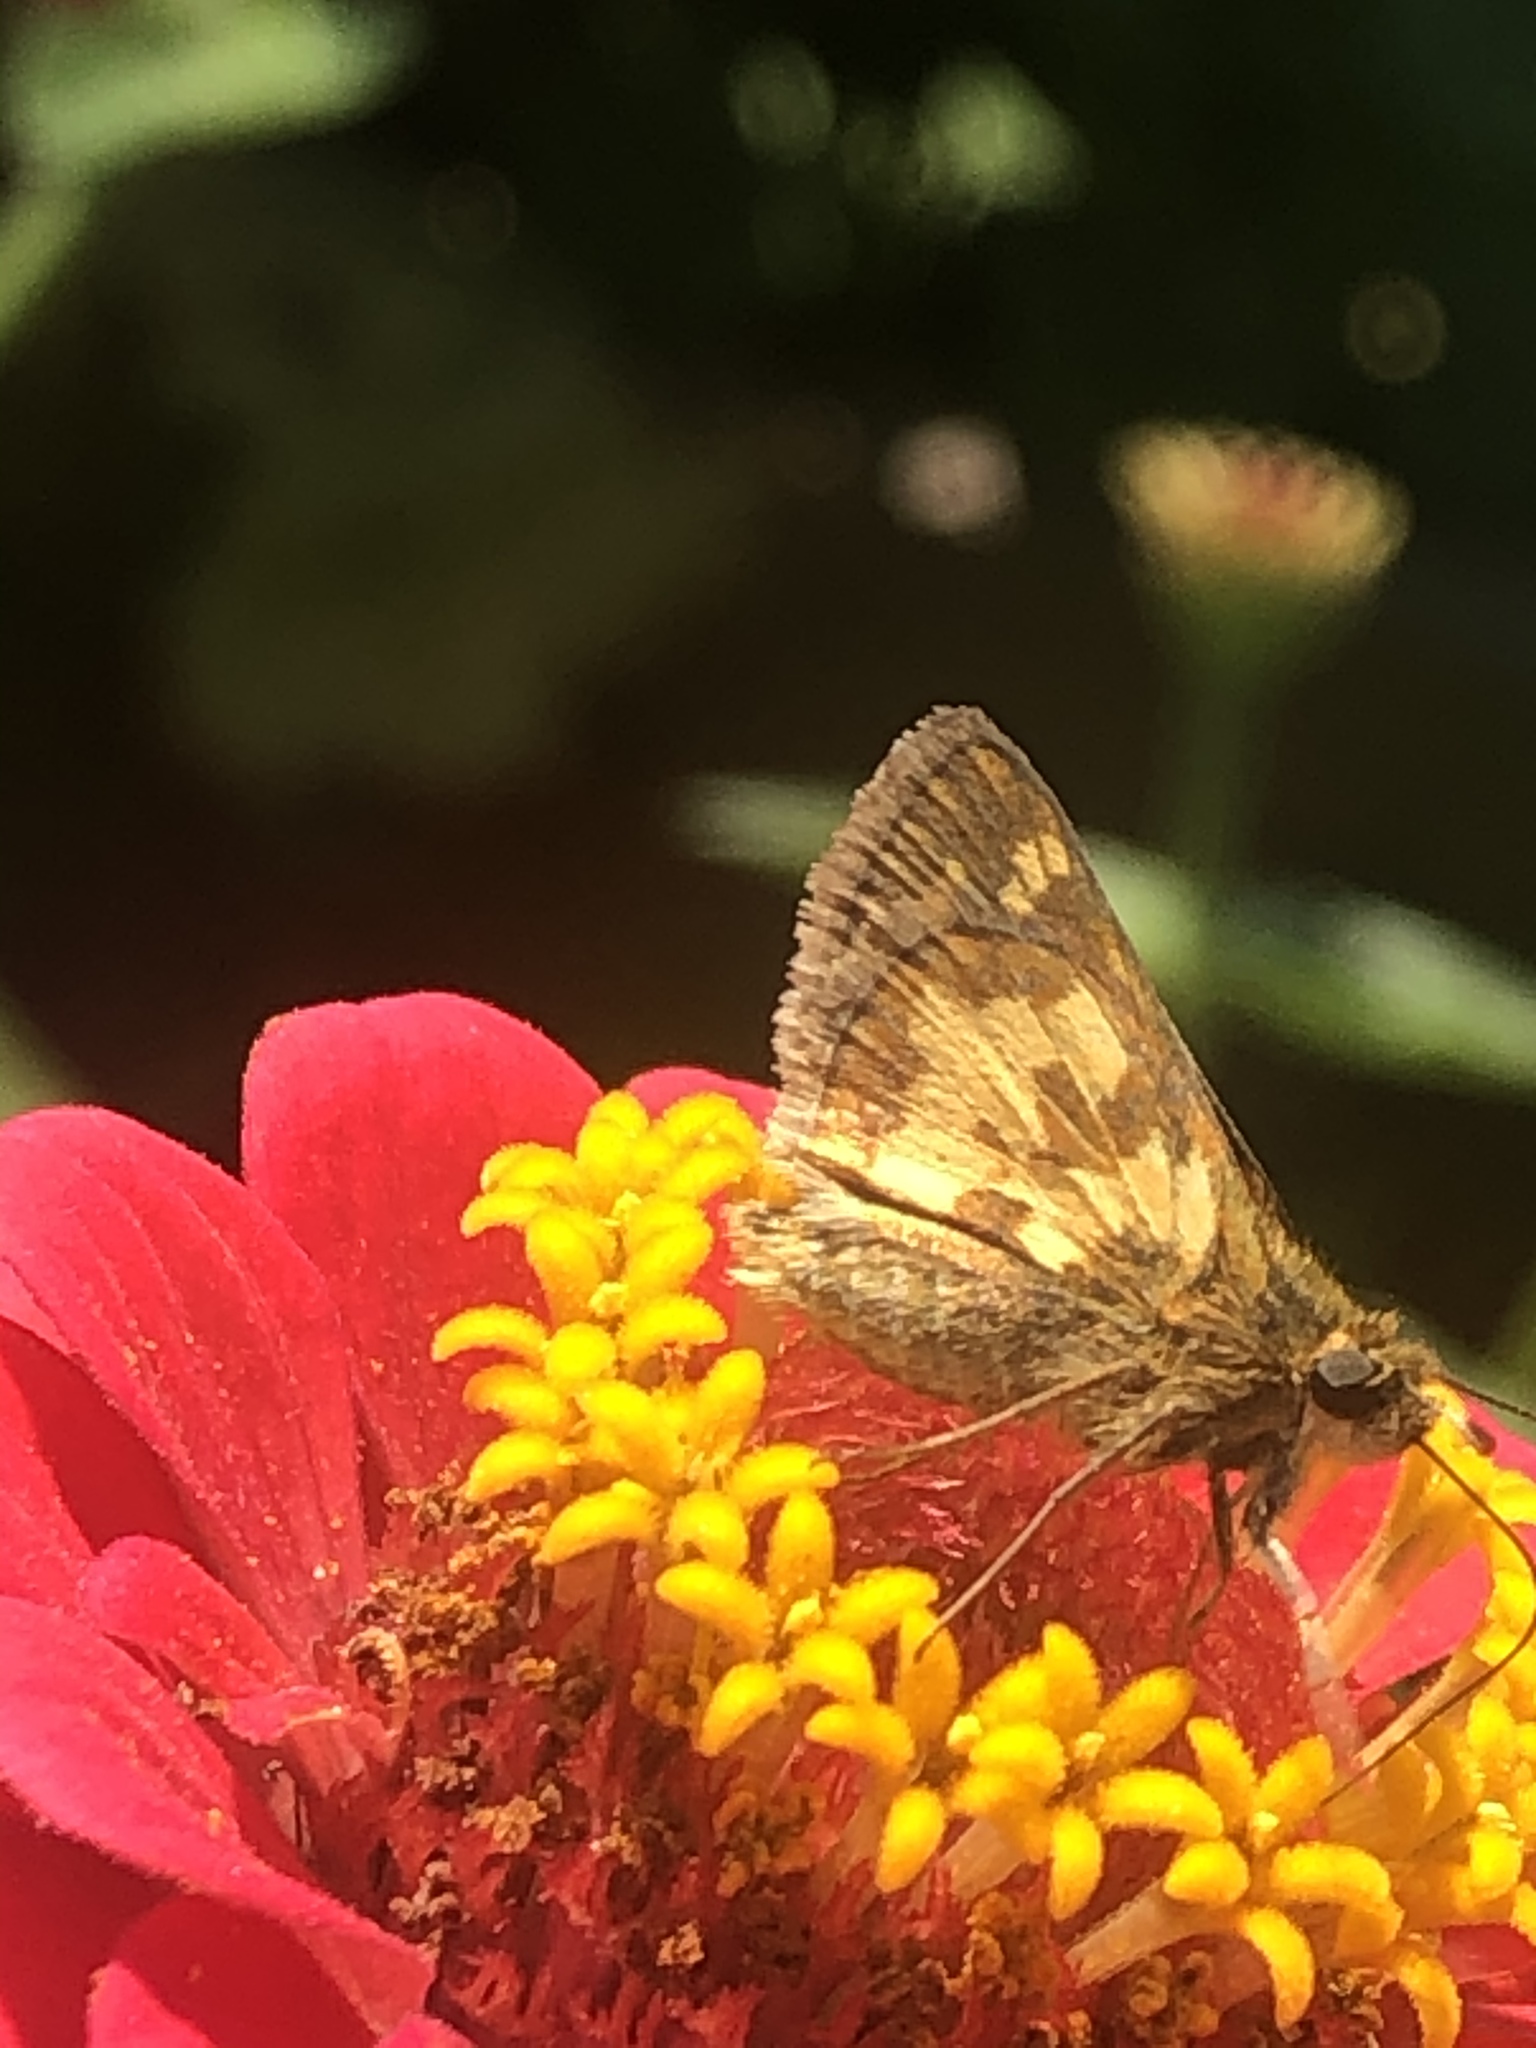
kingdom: Animalia
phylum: Arthropoda
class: Insecta
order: Lepidoptera
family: Hesperiidae
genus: Polites
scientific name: Polites coras
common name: Peck's skipper
